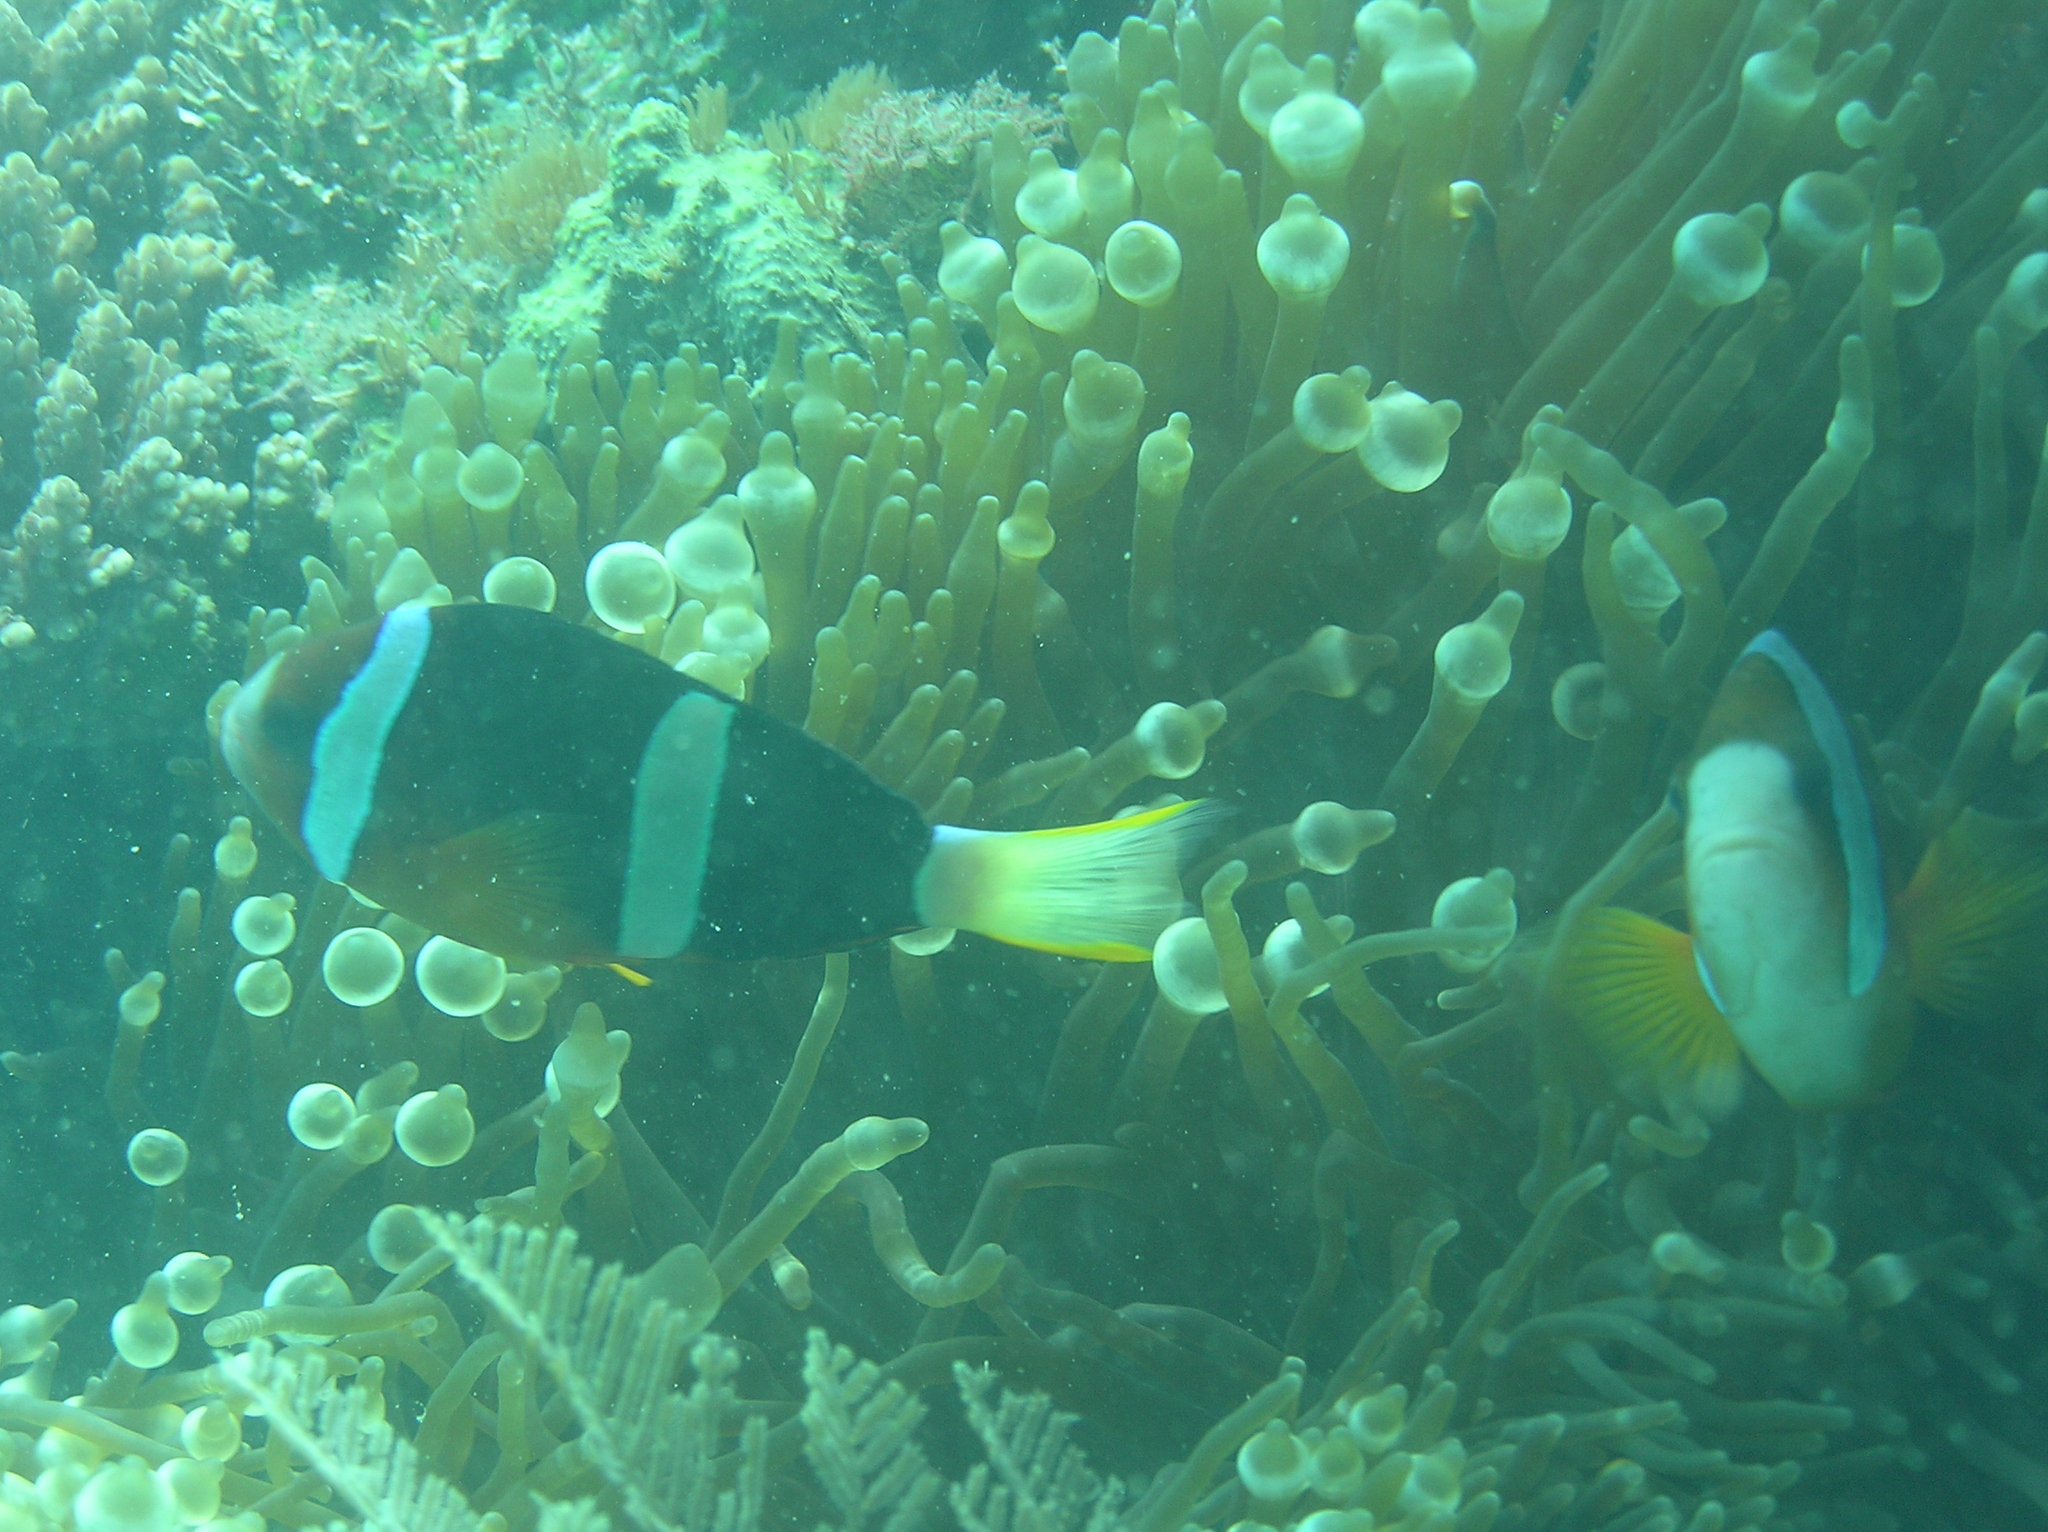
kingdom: Animalia
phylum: Chordata
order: Perciformes
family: Pomacentridae
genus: Amphiprion
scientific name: Amphiprion clarkii
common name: Clark's anemonefish
